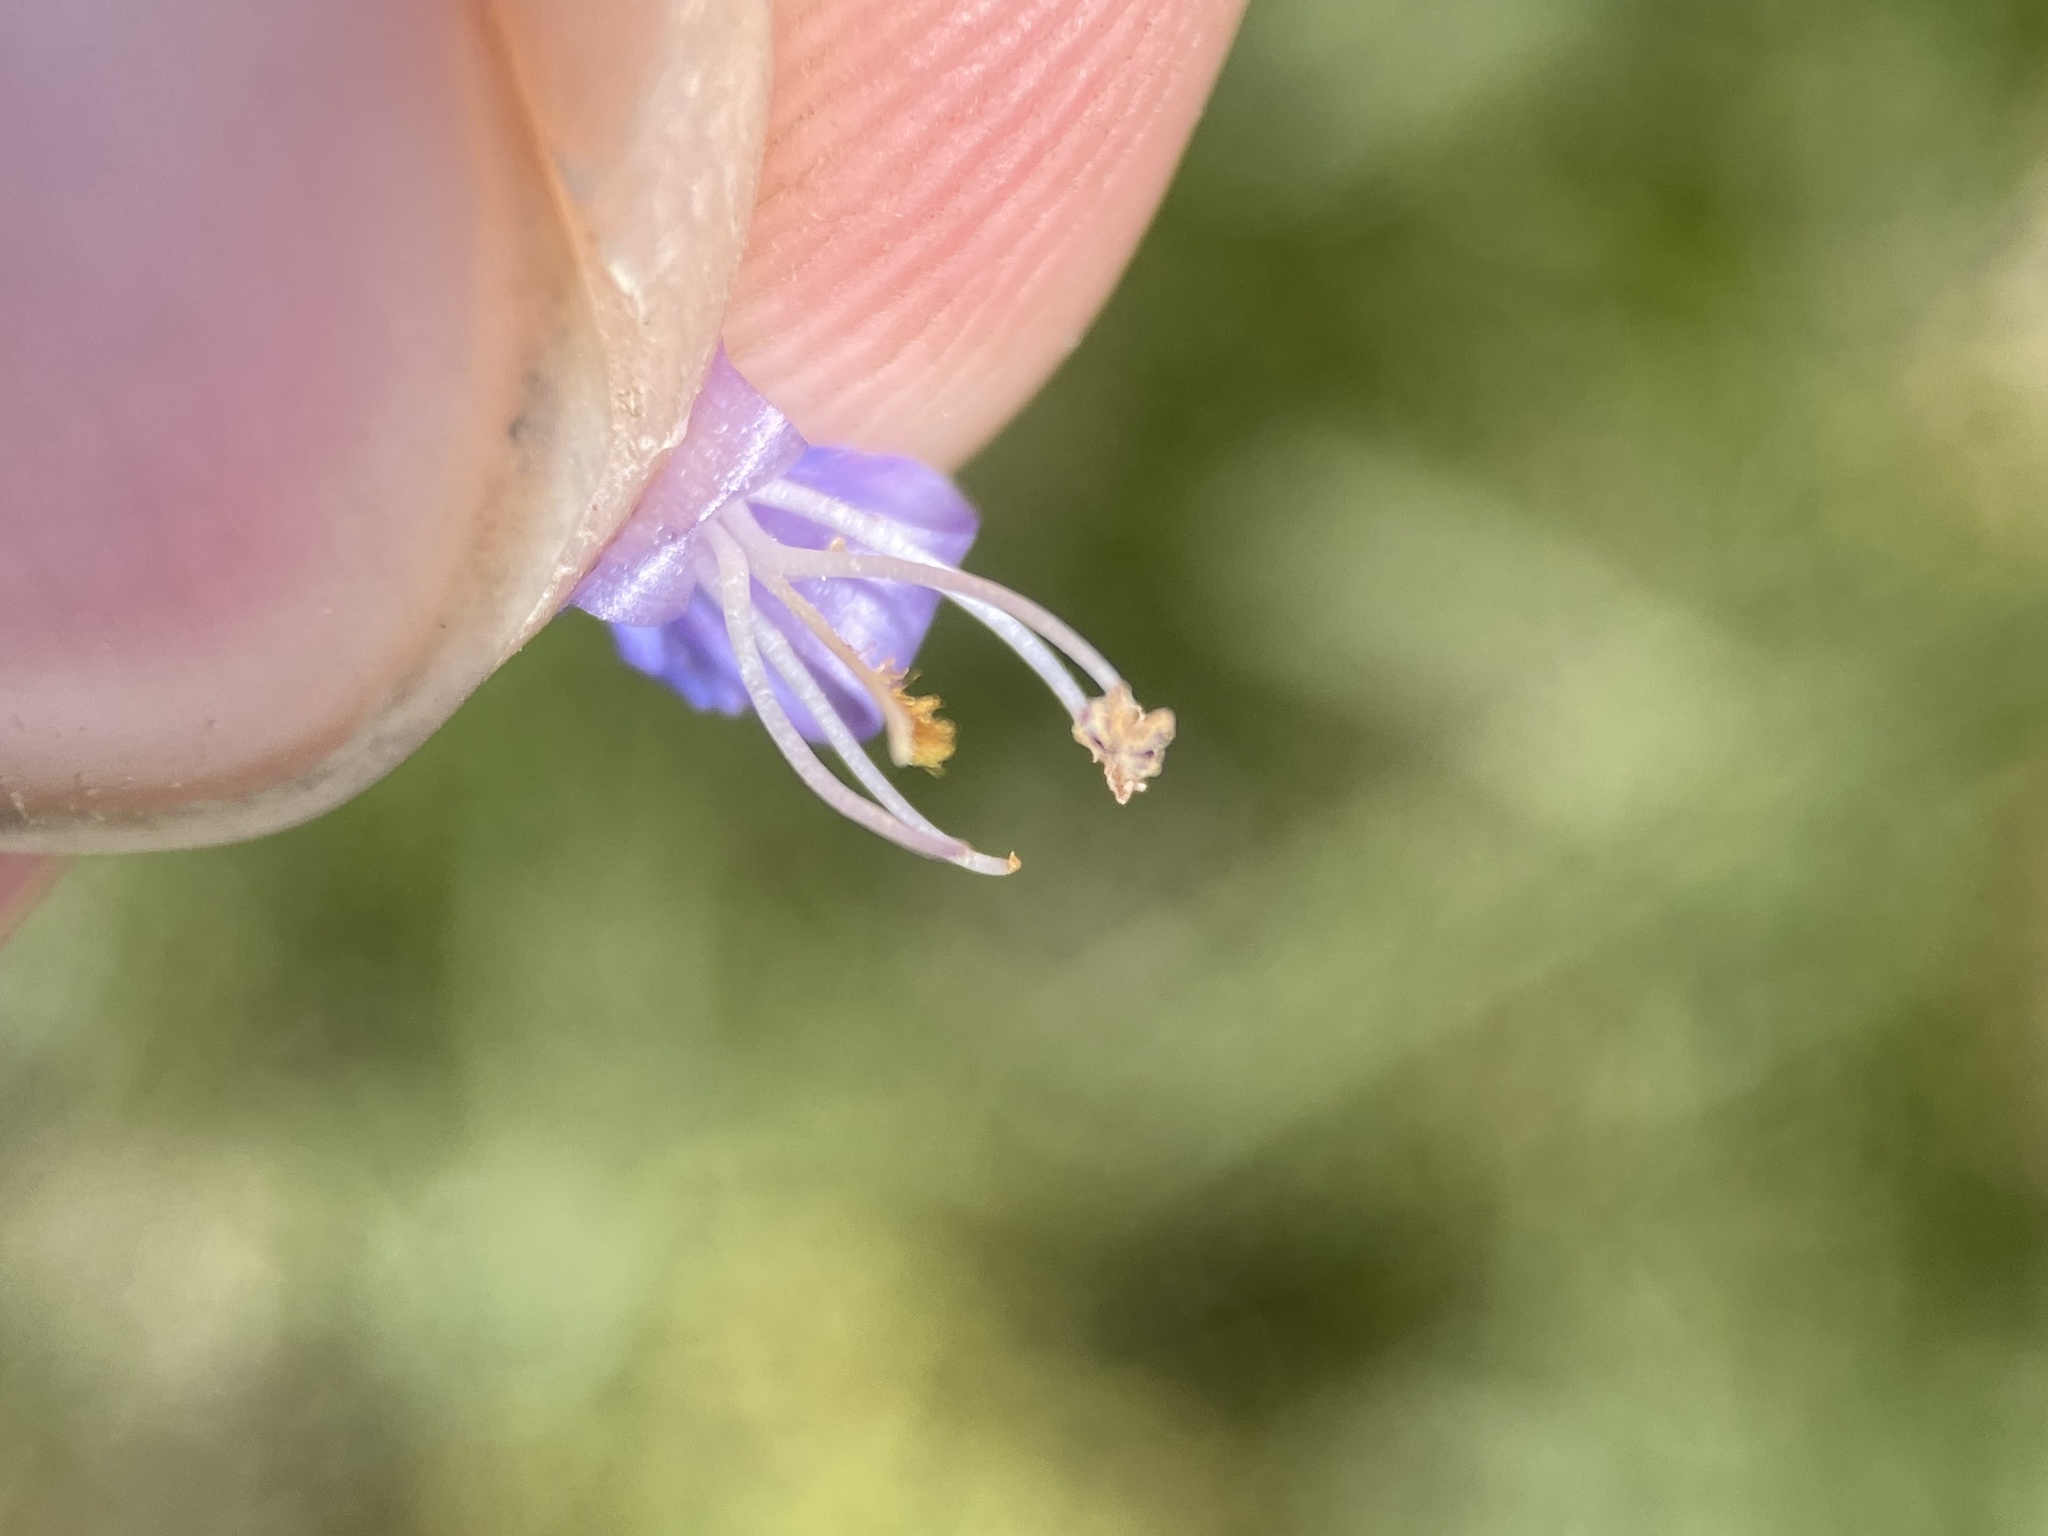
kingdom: Plantae
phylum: Tracheophyta
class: Magnoliopsida
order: Lamiales
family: Plantaginaceae
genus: Penstemon
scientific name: Penstemon rydbergii
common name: Rydberg's beardtongue
